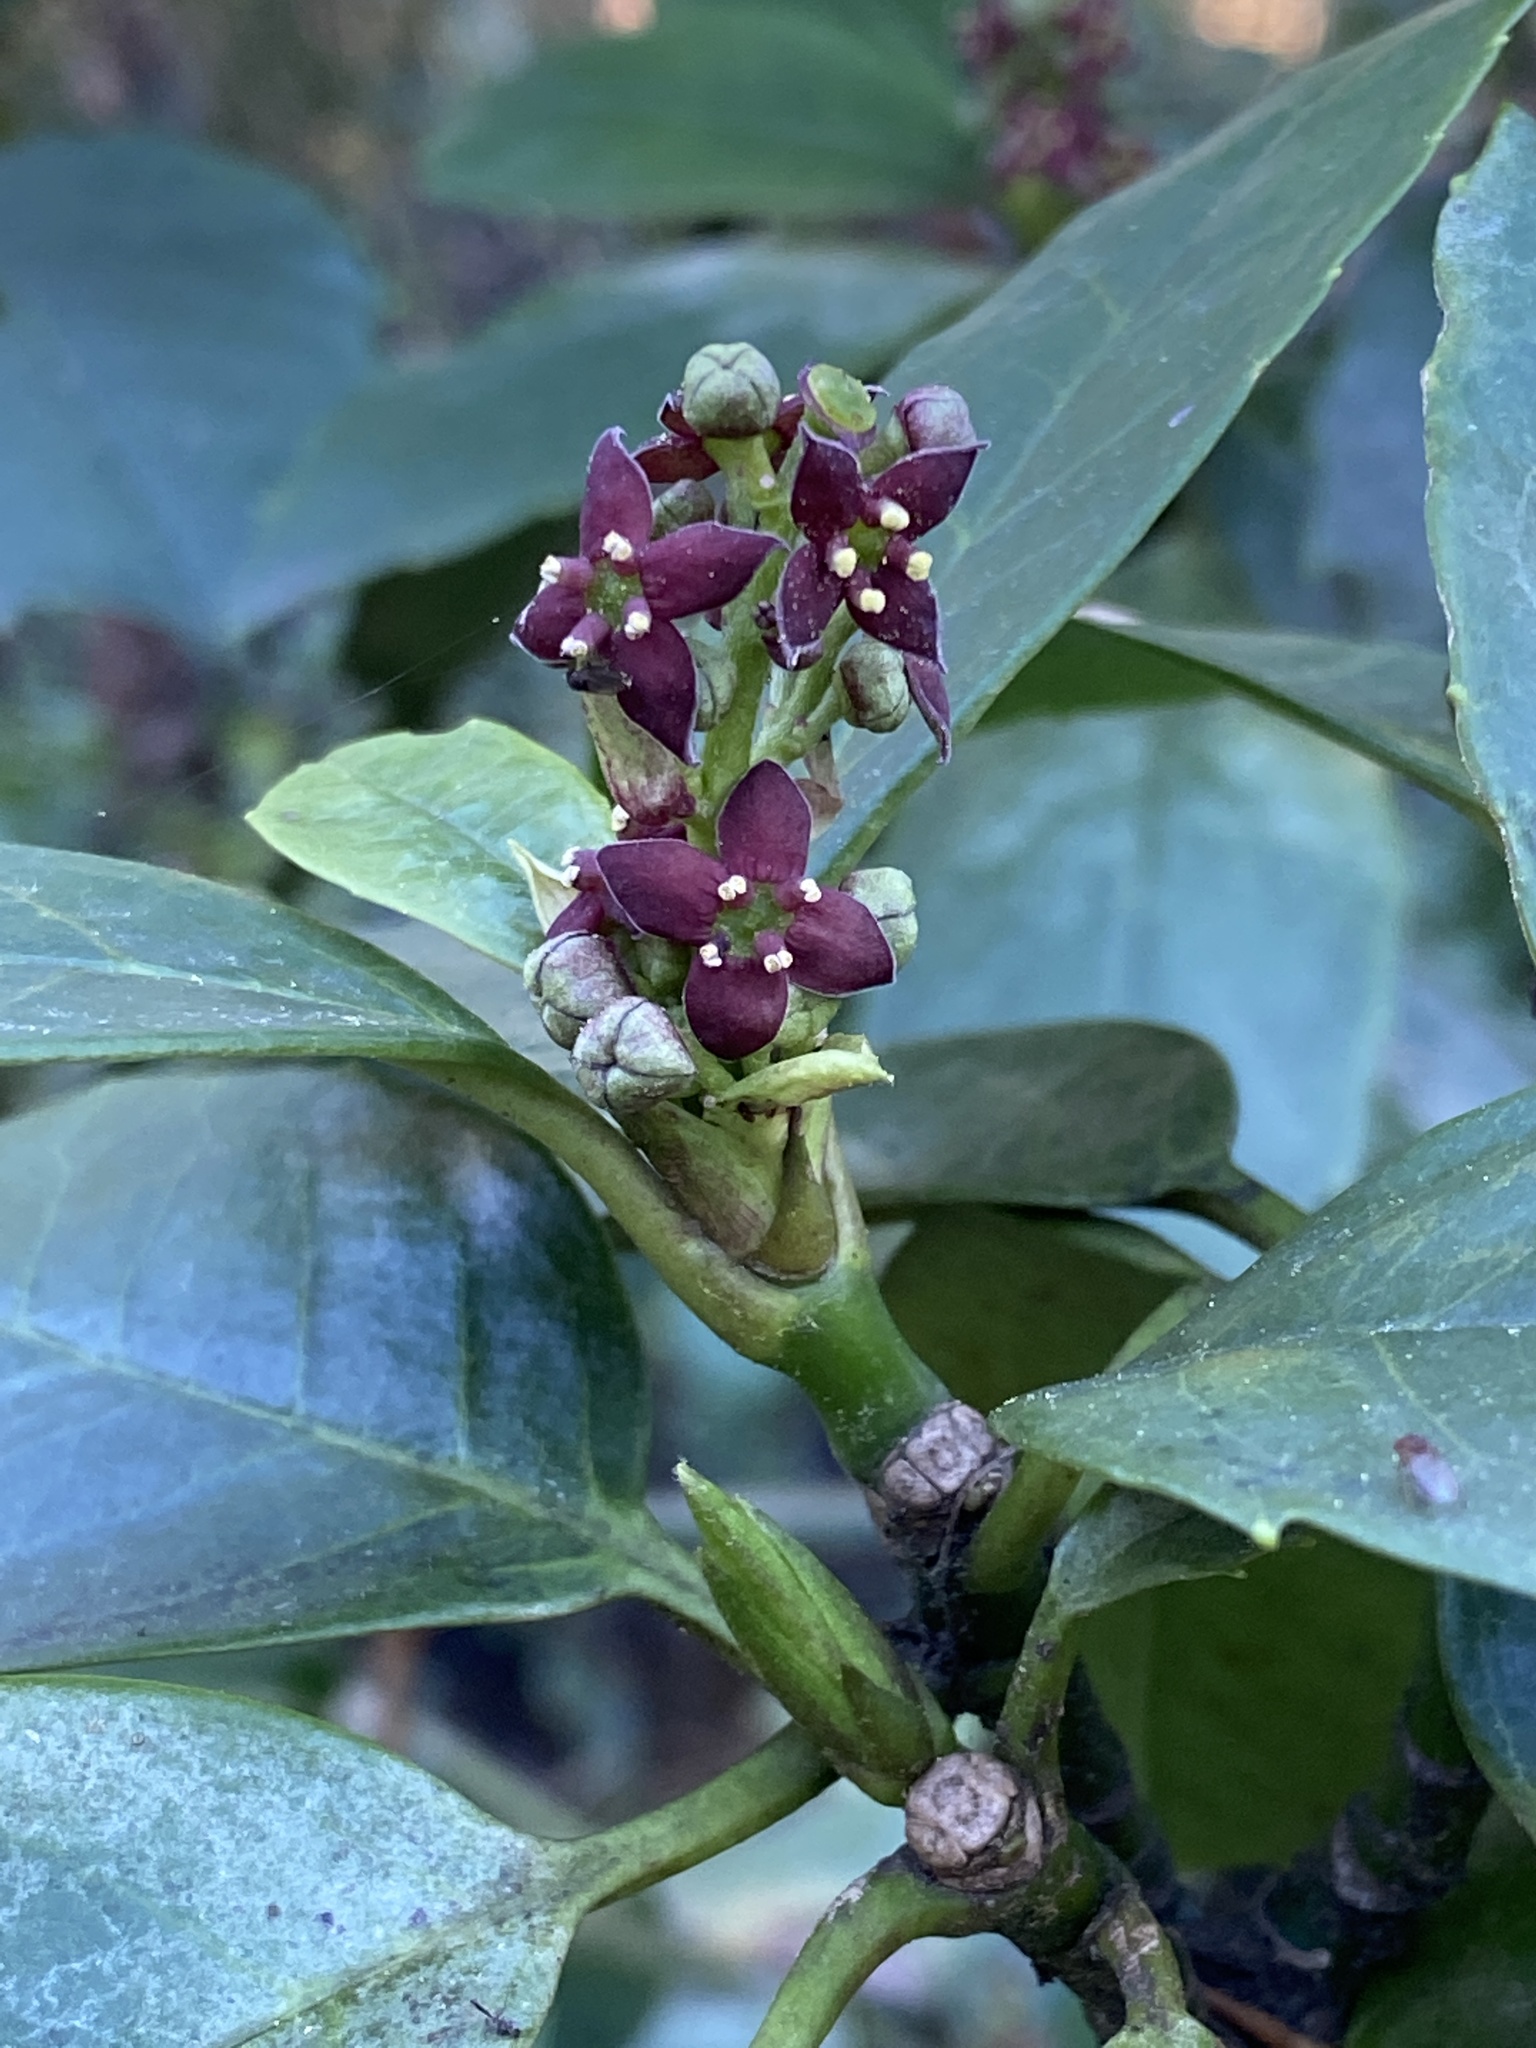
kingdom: Plantae
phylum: Tracheophyta
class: Magnoliopsida
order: Garryales
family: Garryaceae
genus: Aucuba
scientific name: Aucuba japonica
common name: Spotted-laurel
